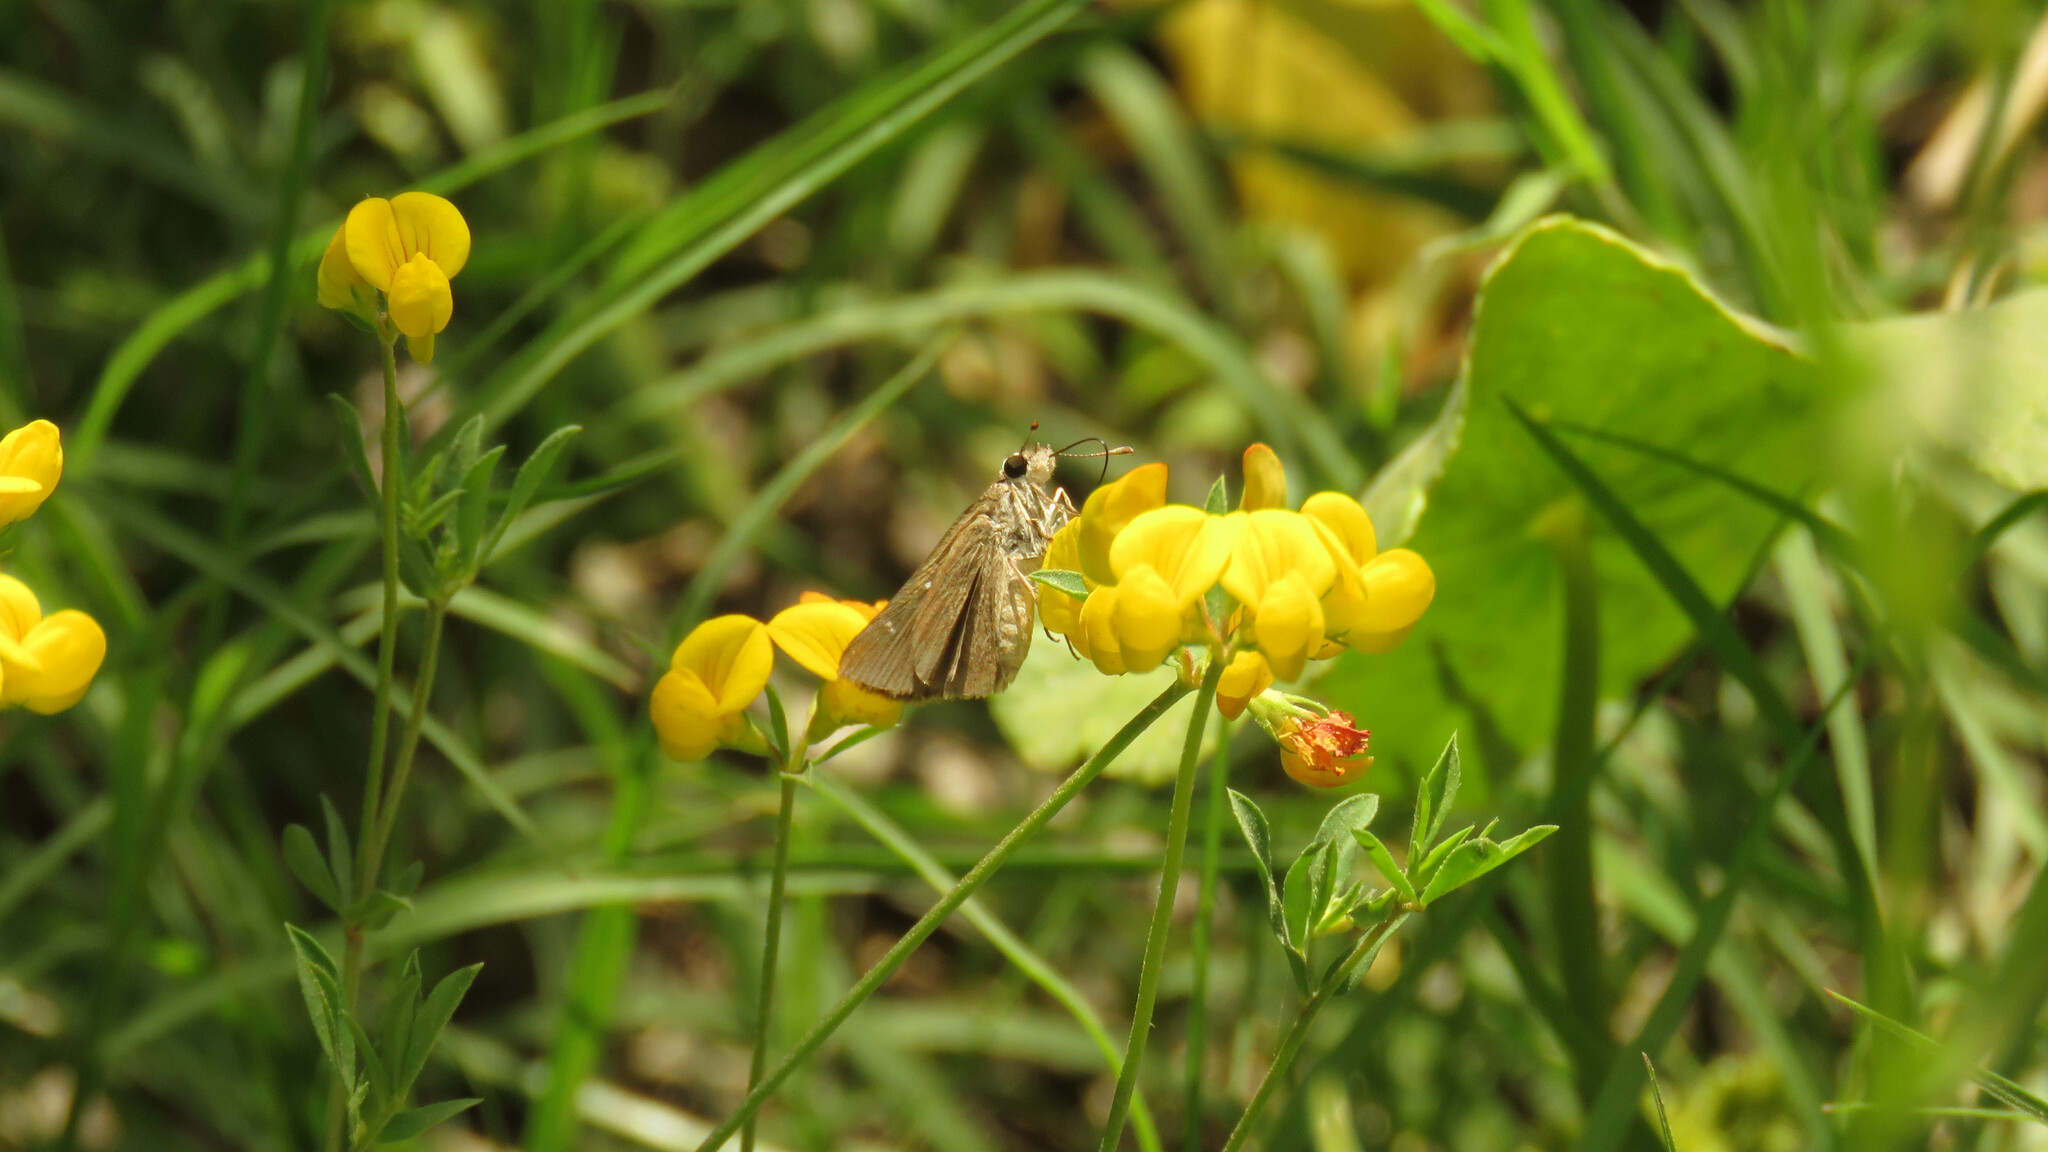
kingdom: Animalia
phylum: Arthropoda
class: Insecta
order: Lepidoptera
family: Hesperiidae
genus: Lerodea
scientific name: Lerodea eufala
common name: Eufala skipper
